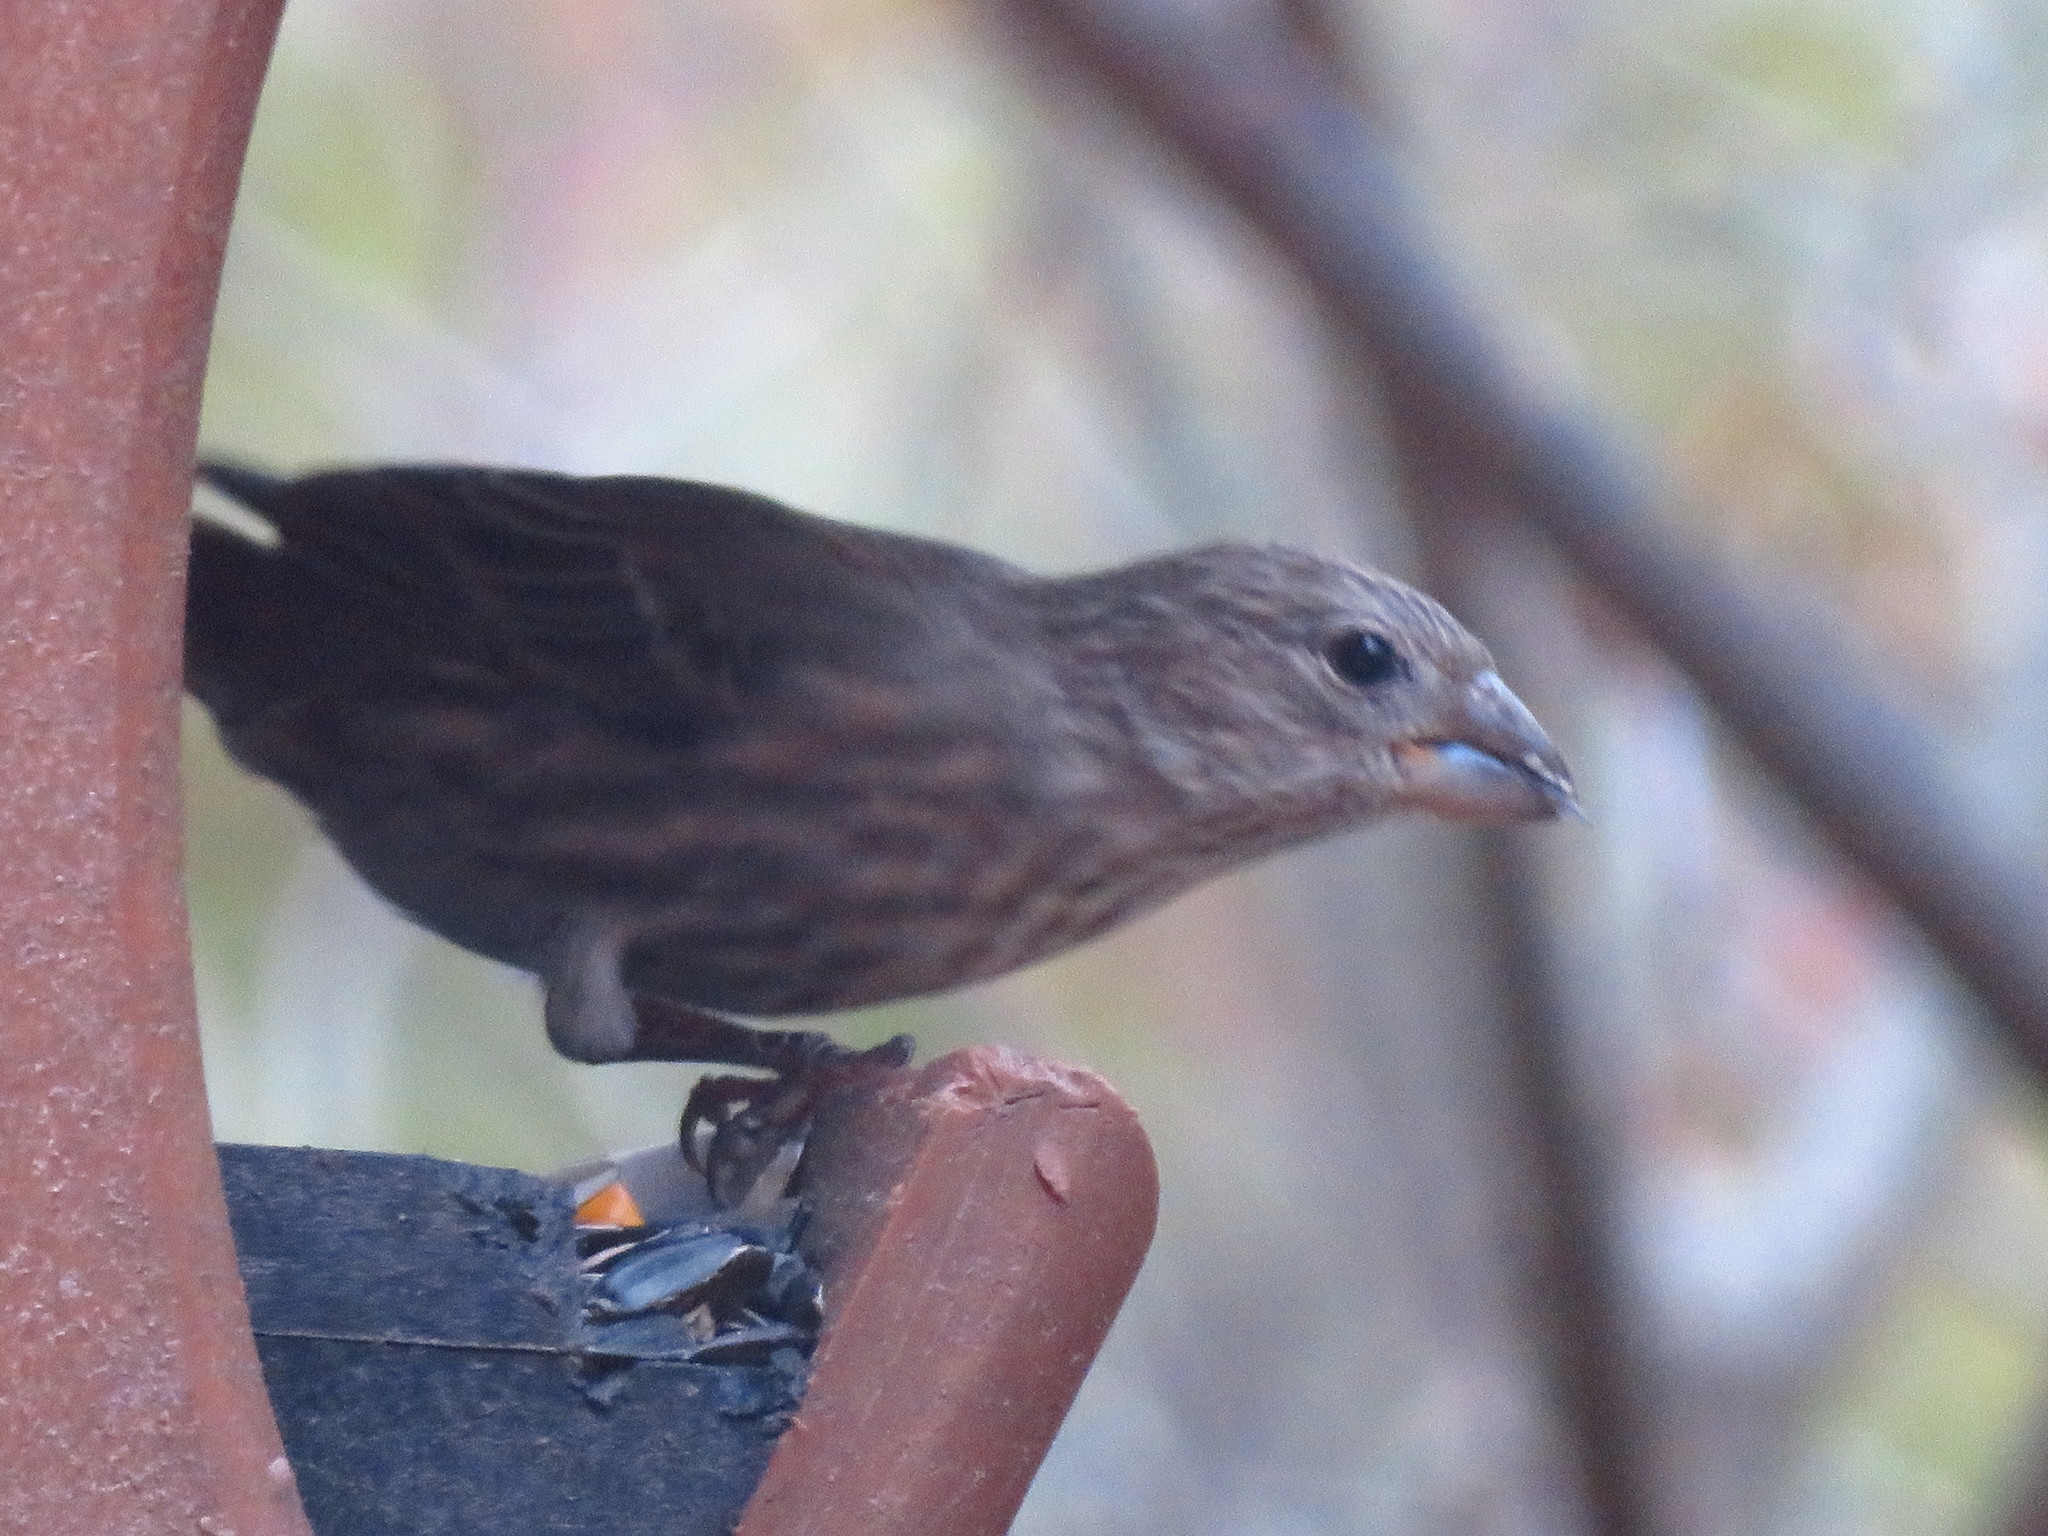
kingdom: Animalia
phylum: Chordata
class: Aves
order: Passeriformes
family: Fringillidae
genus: Haemorhous
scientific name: Haemorhous mexicanus
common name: House finch
